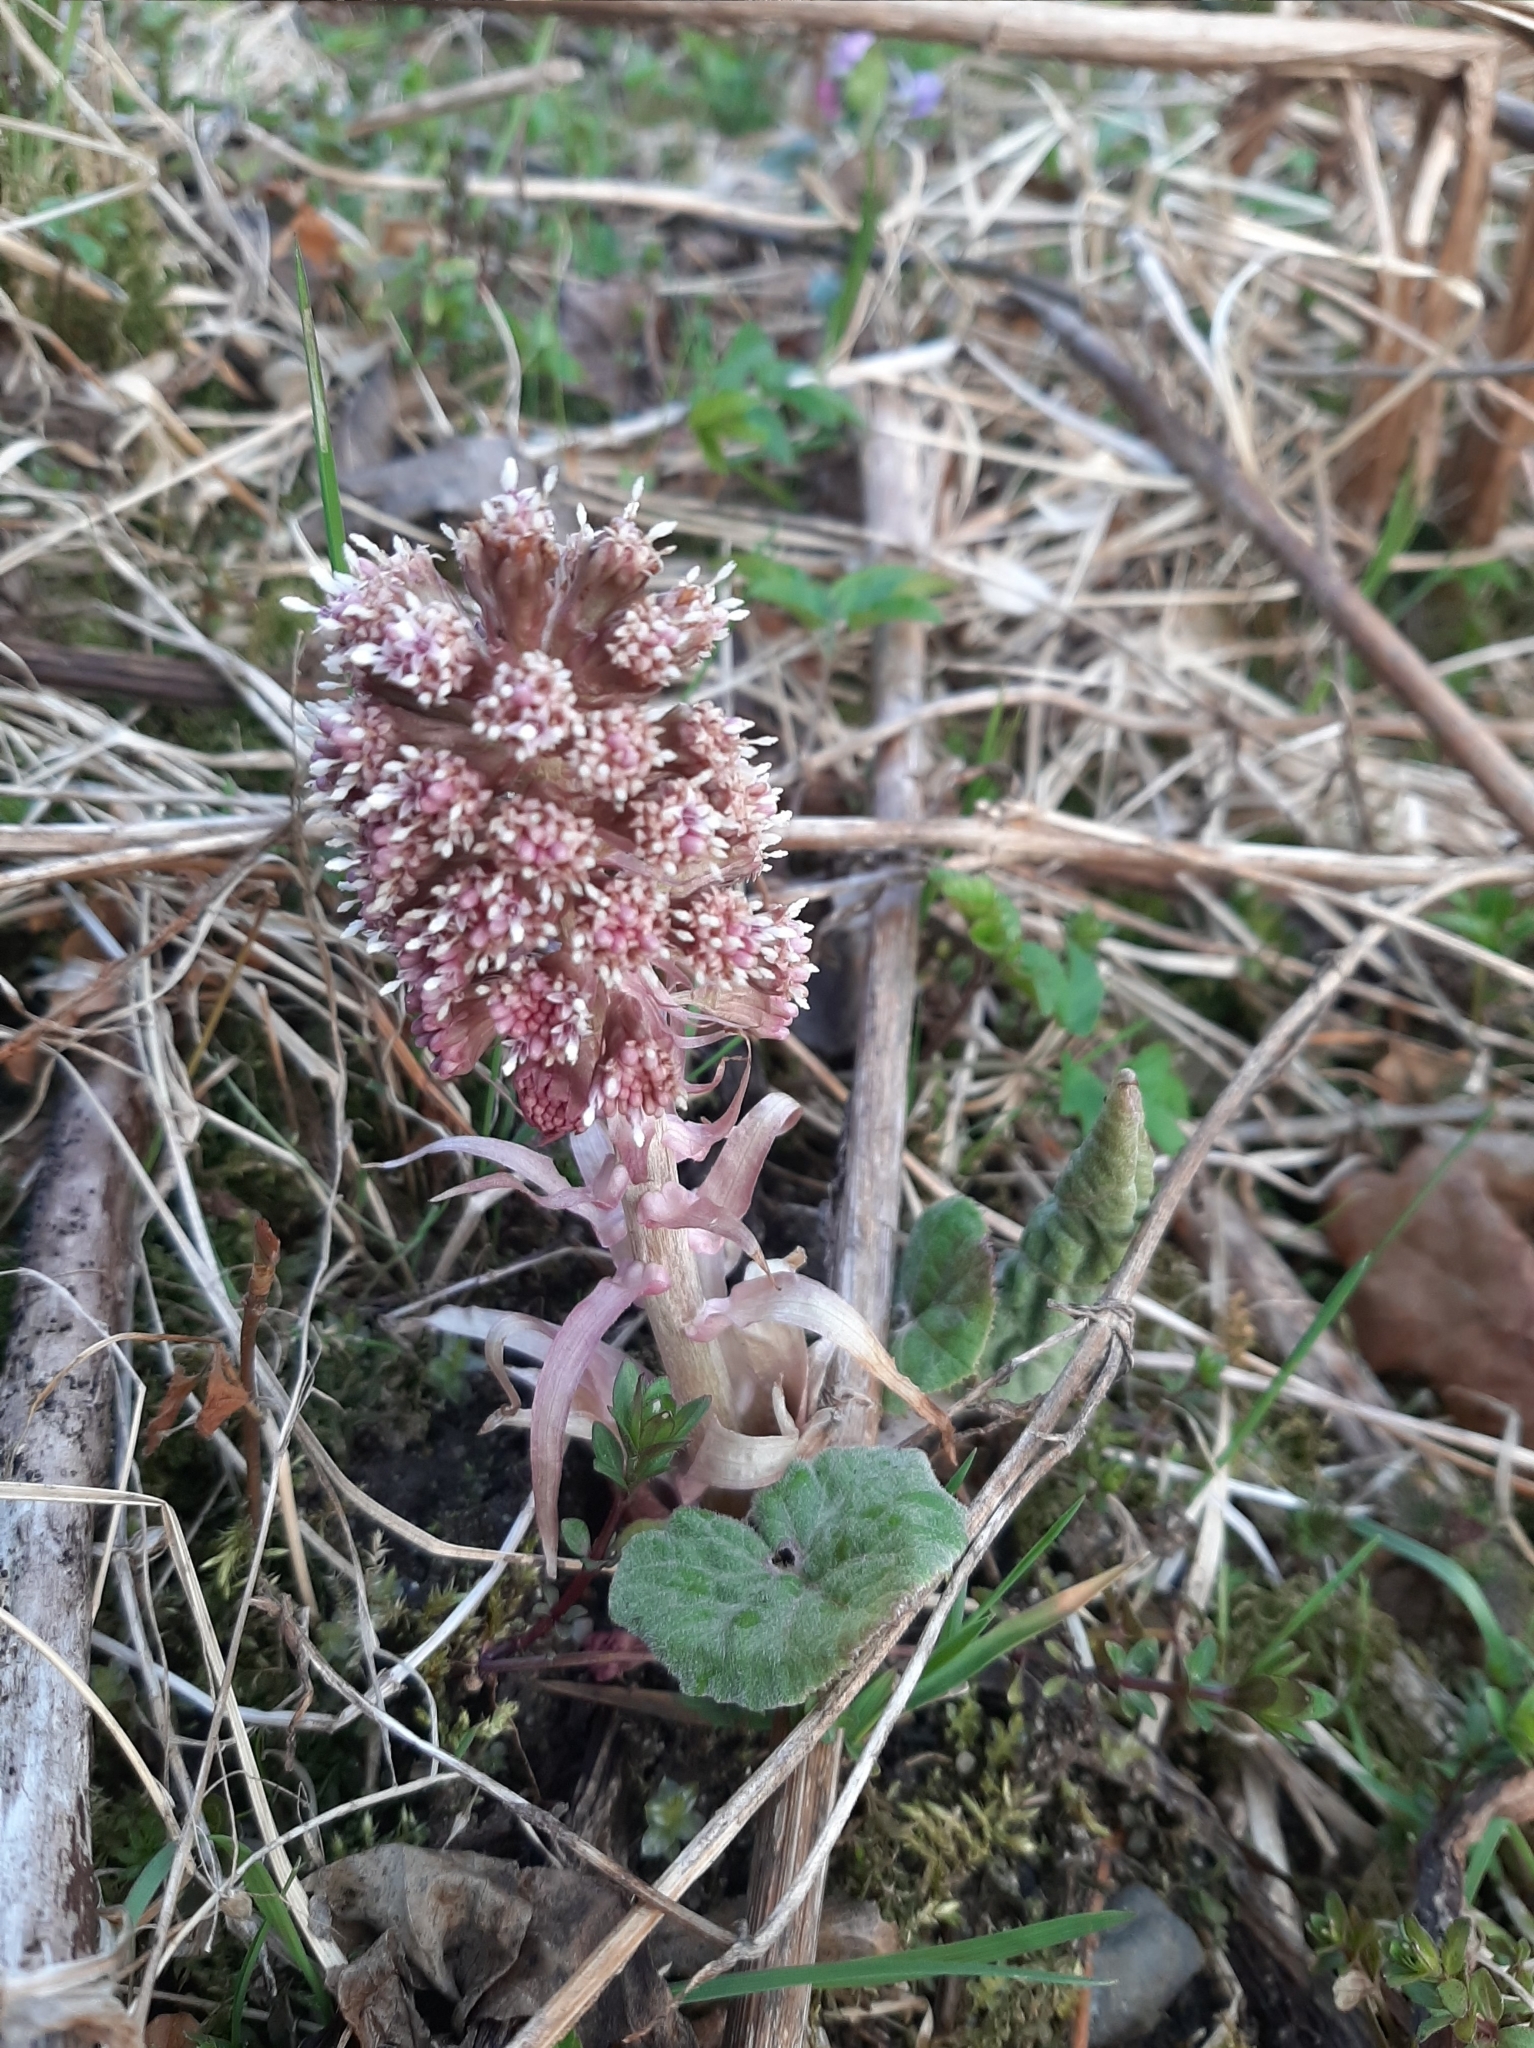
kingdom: Plantae
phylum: Tracheophyta
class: Magnoliopsida
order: Asterales
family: Asteraceae
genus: Petasites
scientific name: Petasites hybridus
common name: Butterbur
